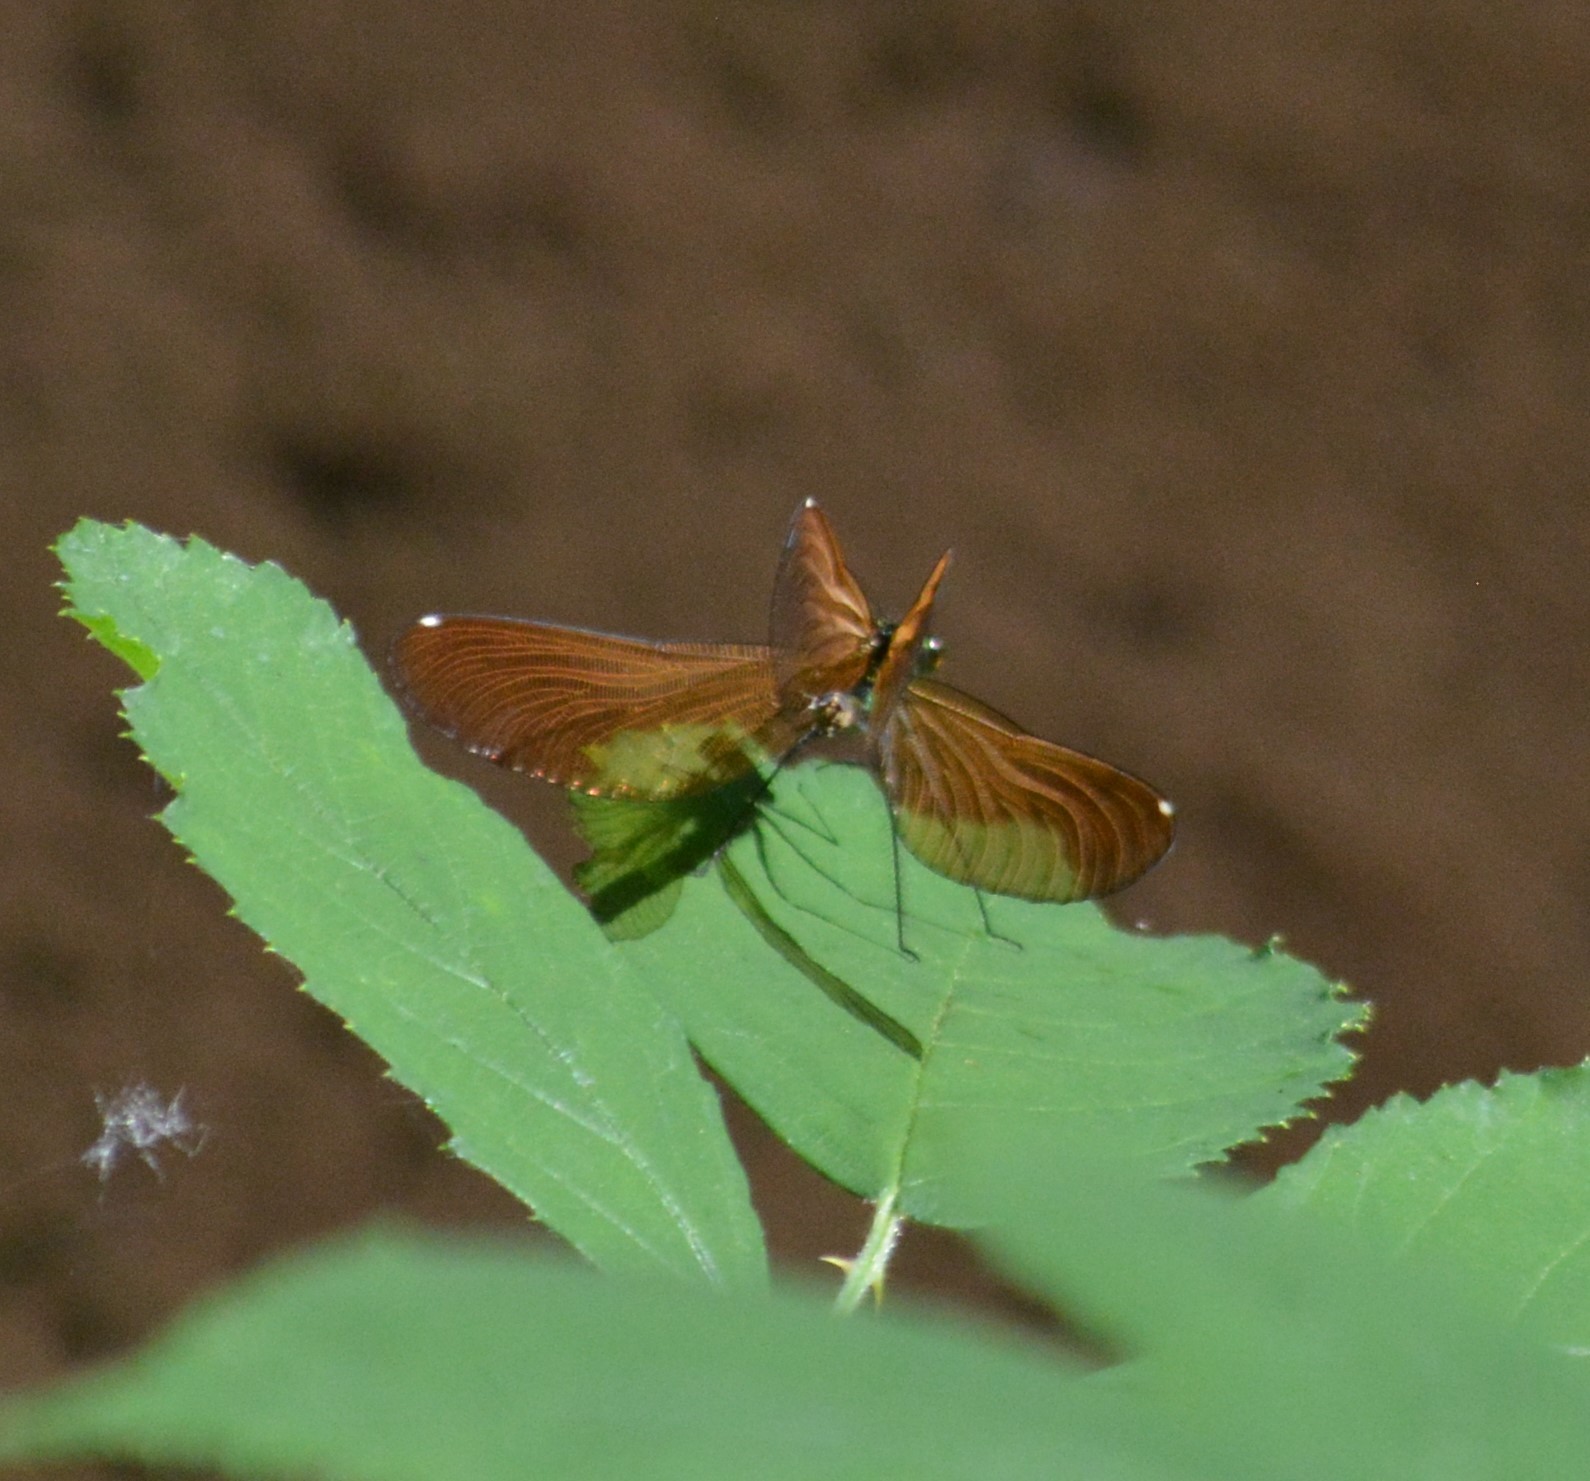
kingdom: Animalia
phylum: Arthropoda
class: Insecta
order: Odonata
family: Calopterygidae
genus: Calopteryx
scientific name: Calopteryx virgo
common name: Beautiful demoiselle
